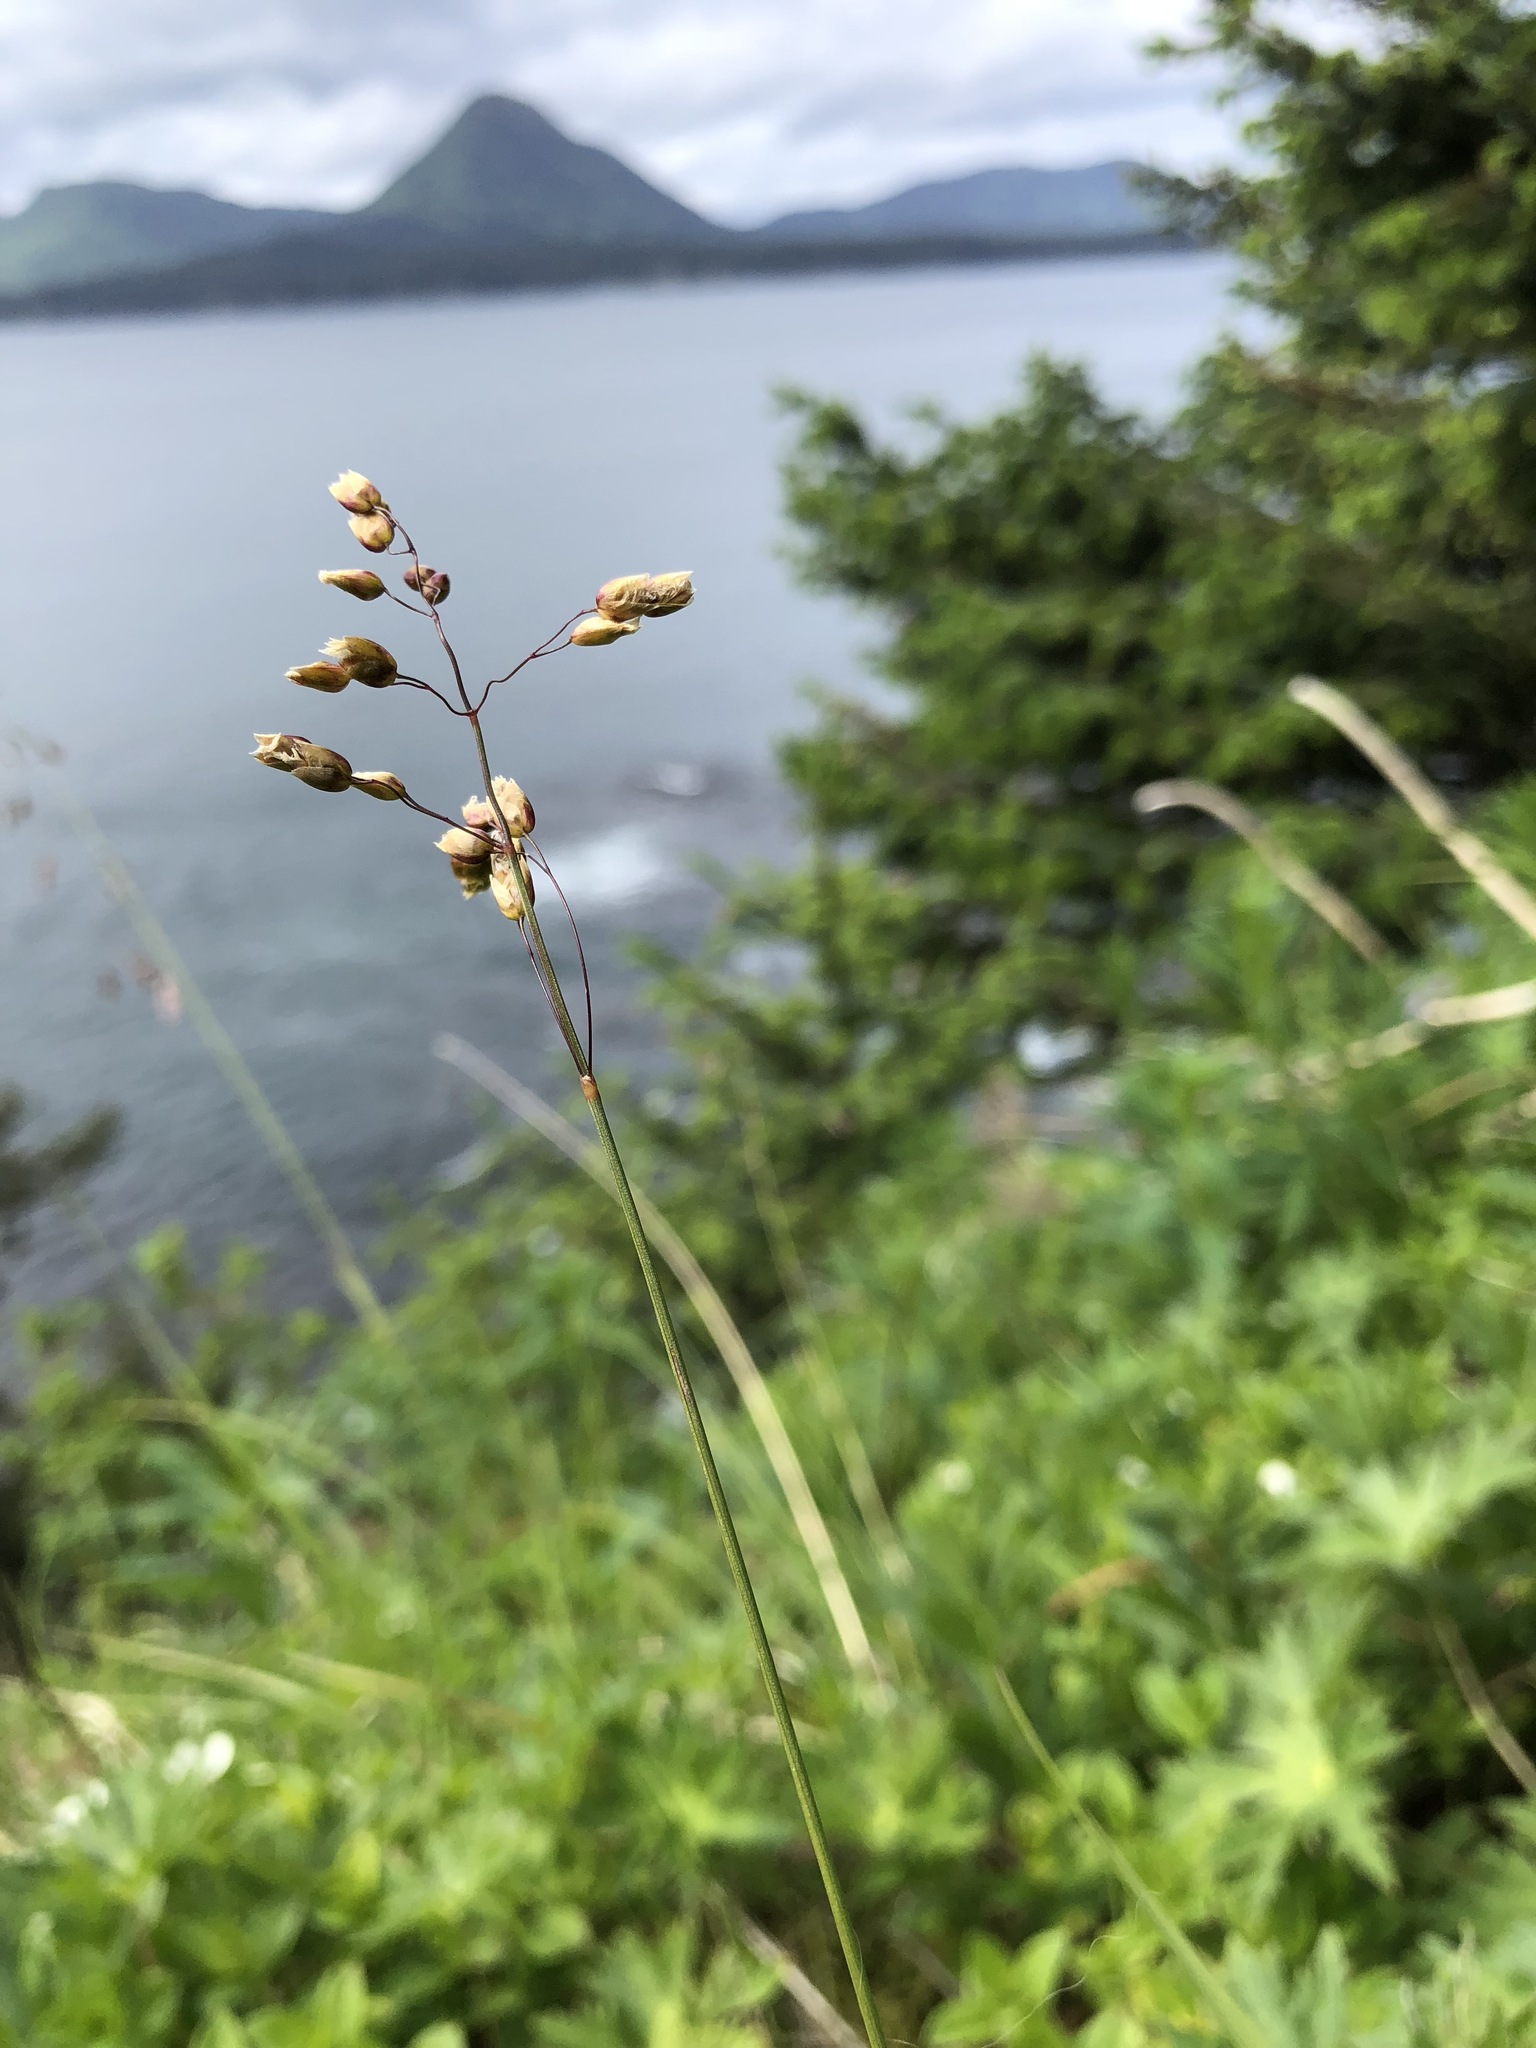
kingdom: Plantae
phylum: Tracheophyta
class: Liliopsida
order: Poales
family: Poaceae
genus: Anthoxanthum
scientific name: Anthoxanthum nitens
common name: Holy grass
